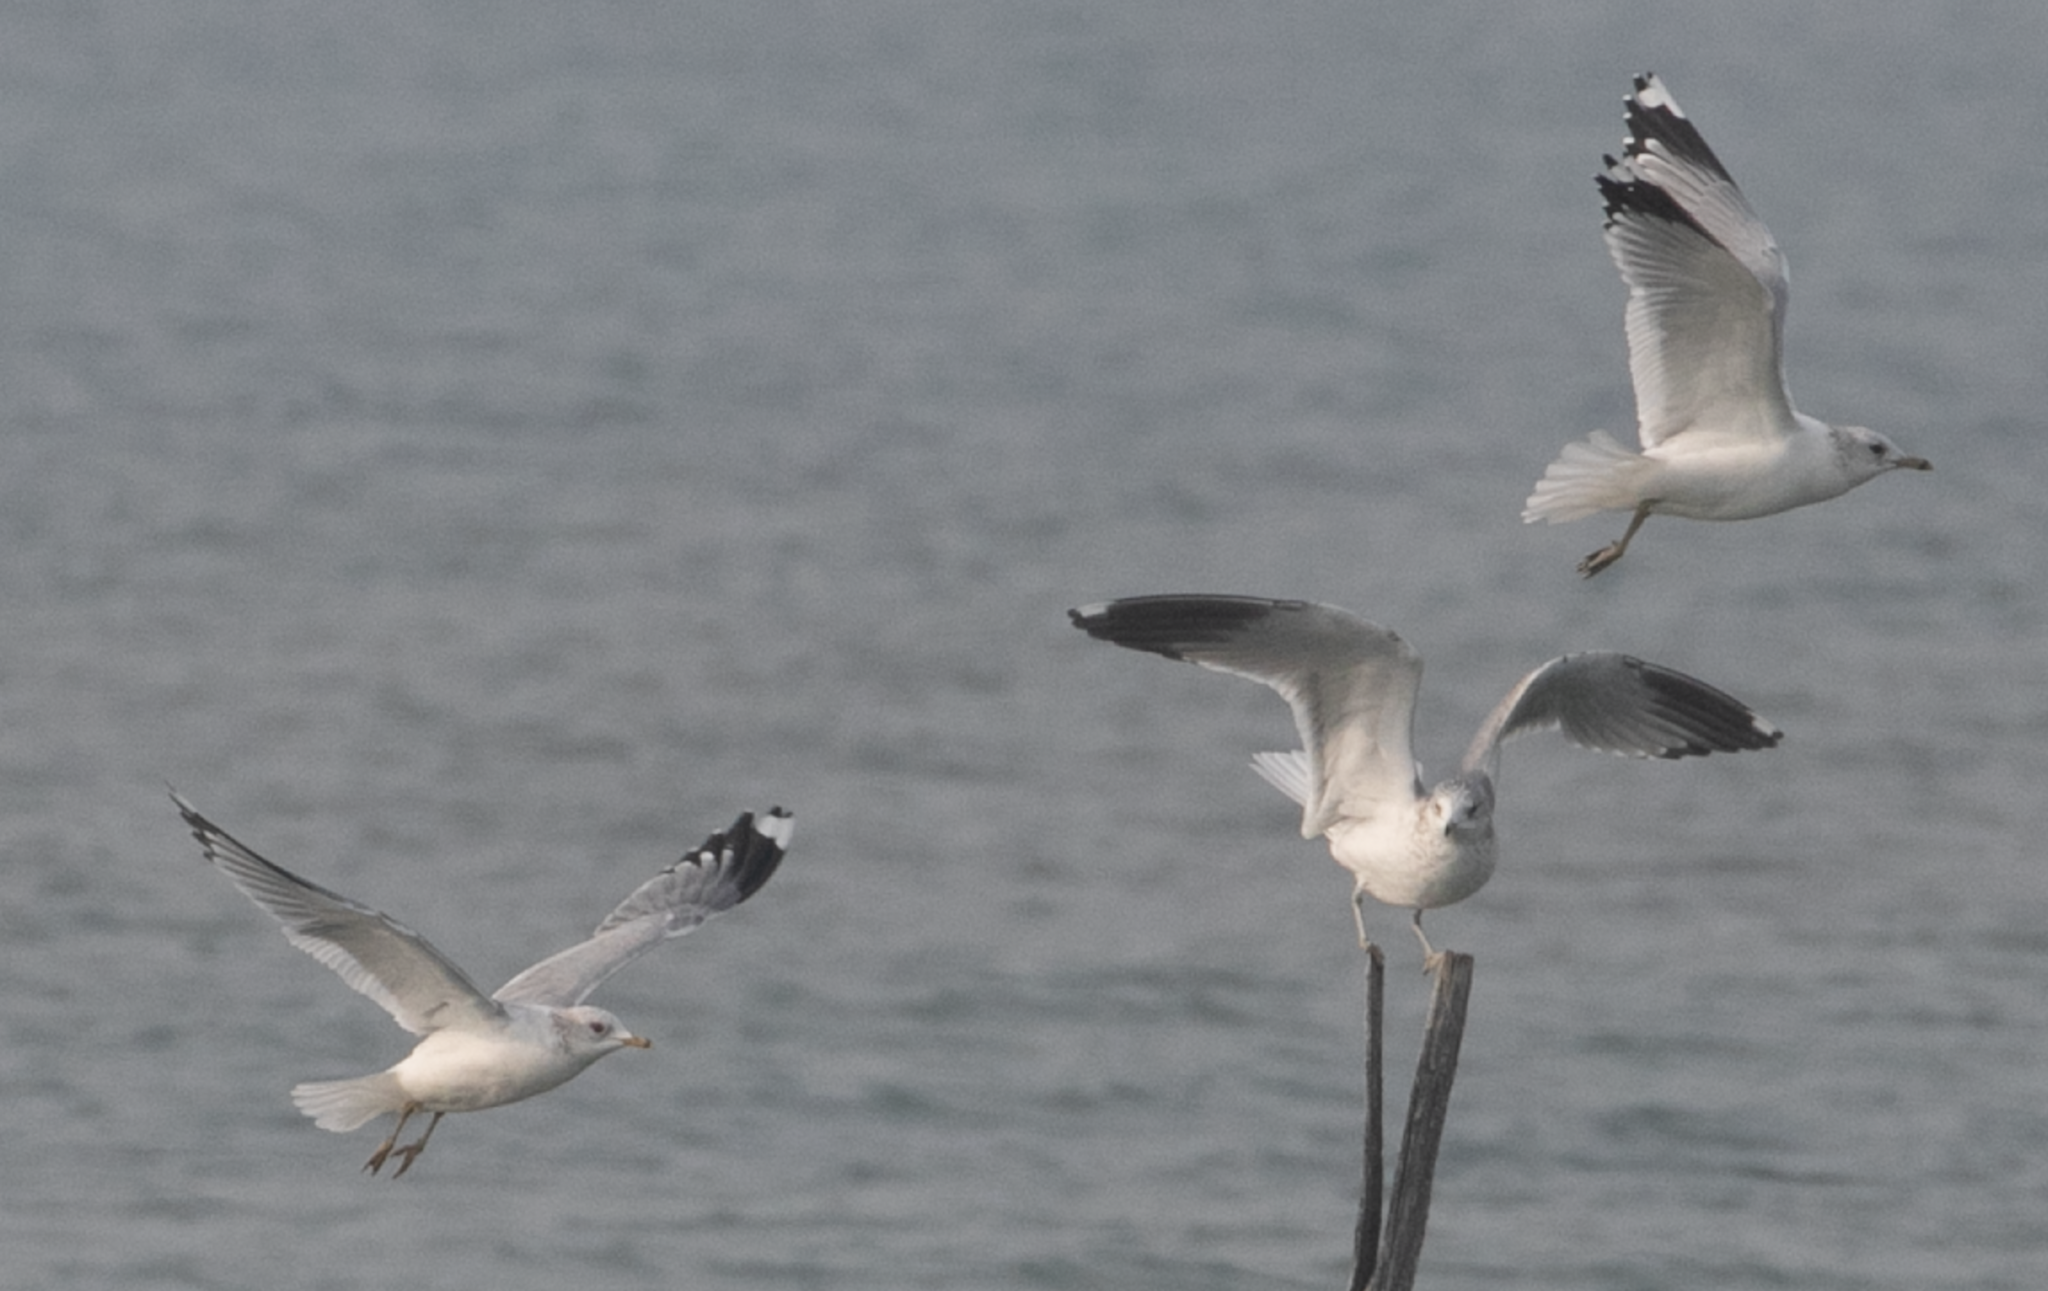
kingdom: Animalia
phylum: Chordata
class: Aves
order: Charadriiformes
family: Laridae
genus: Larus
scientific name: Larus canus
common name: Mew gull
